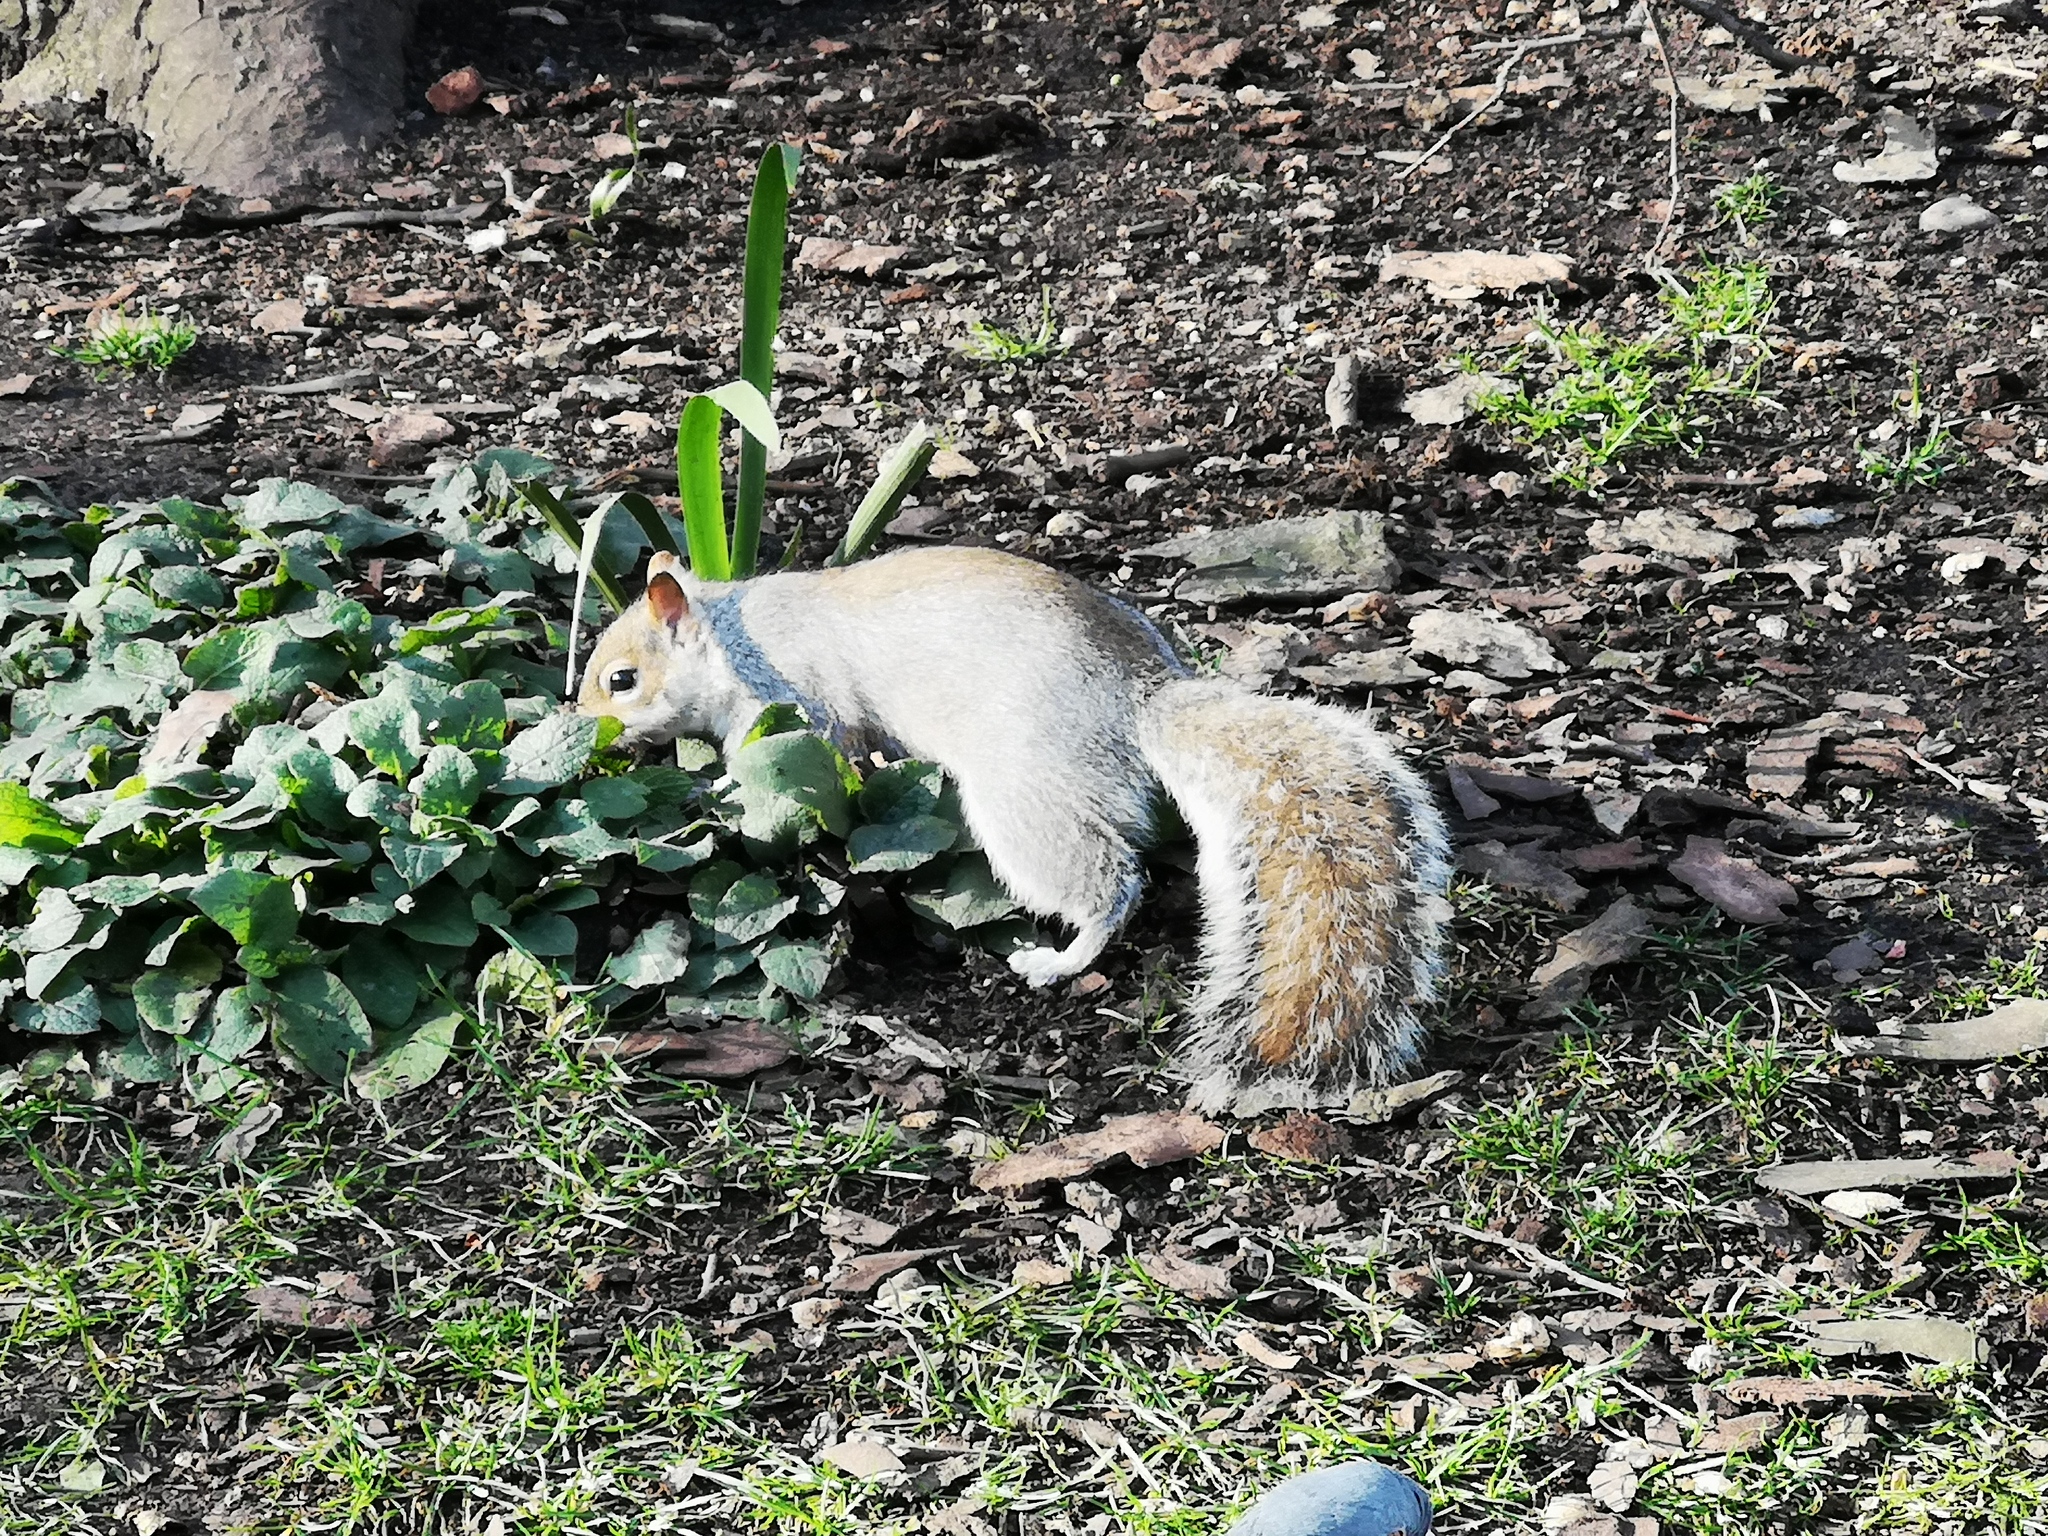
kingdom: Animalia
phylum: Chordata
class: Mammalia
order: Rodentia
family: Sciuridae
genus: Sciurus
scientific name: Sciurus carolinensis
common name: Eastern gray squirrel
